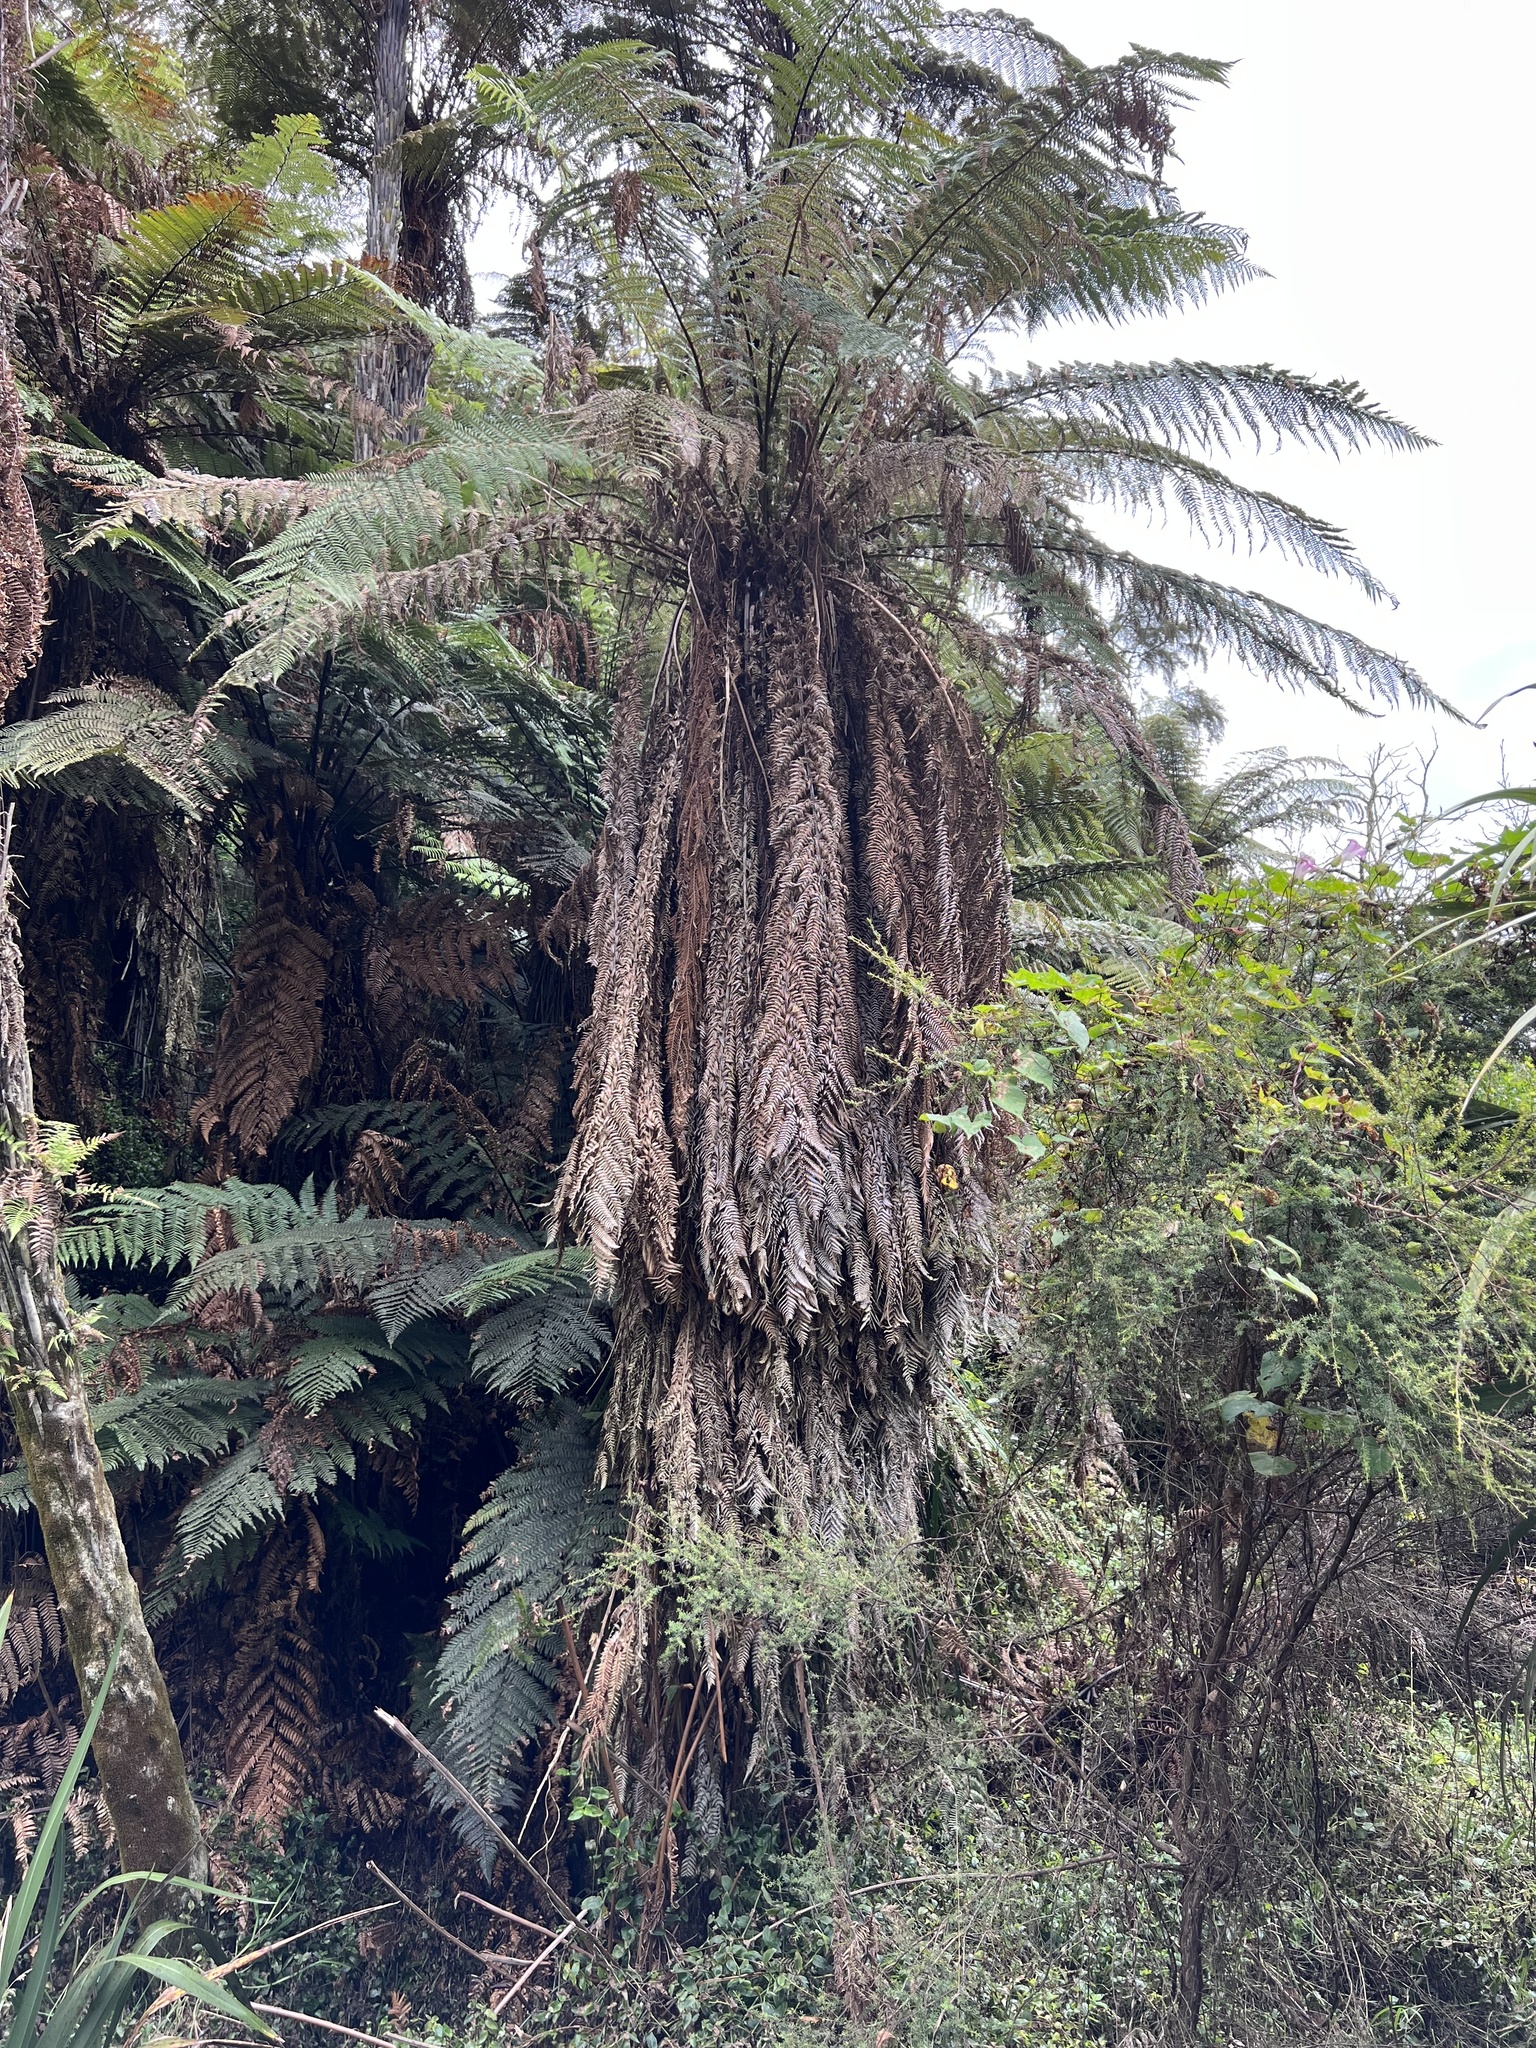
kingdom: Plantae
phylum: Tracheophyta
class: Polypodiopsida
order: Cyatheales
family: Dicksoniaceae
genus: Dicksonia
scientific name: Dicksonia fibrosa
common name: Golden tree fern
